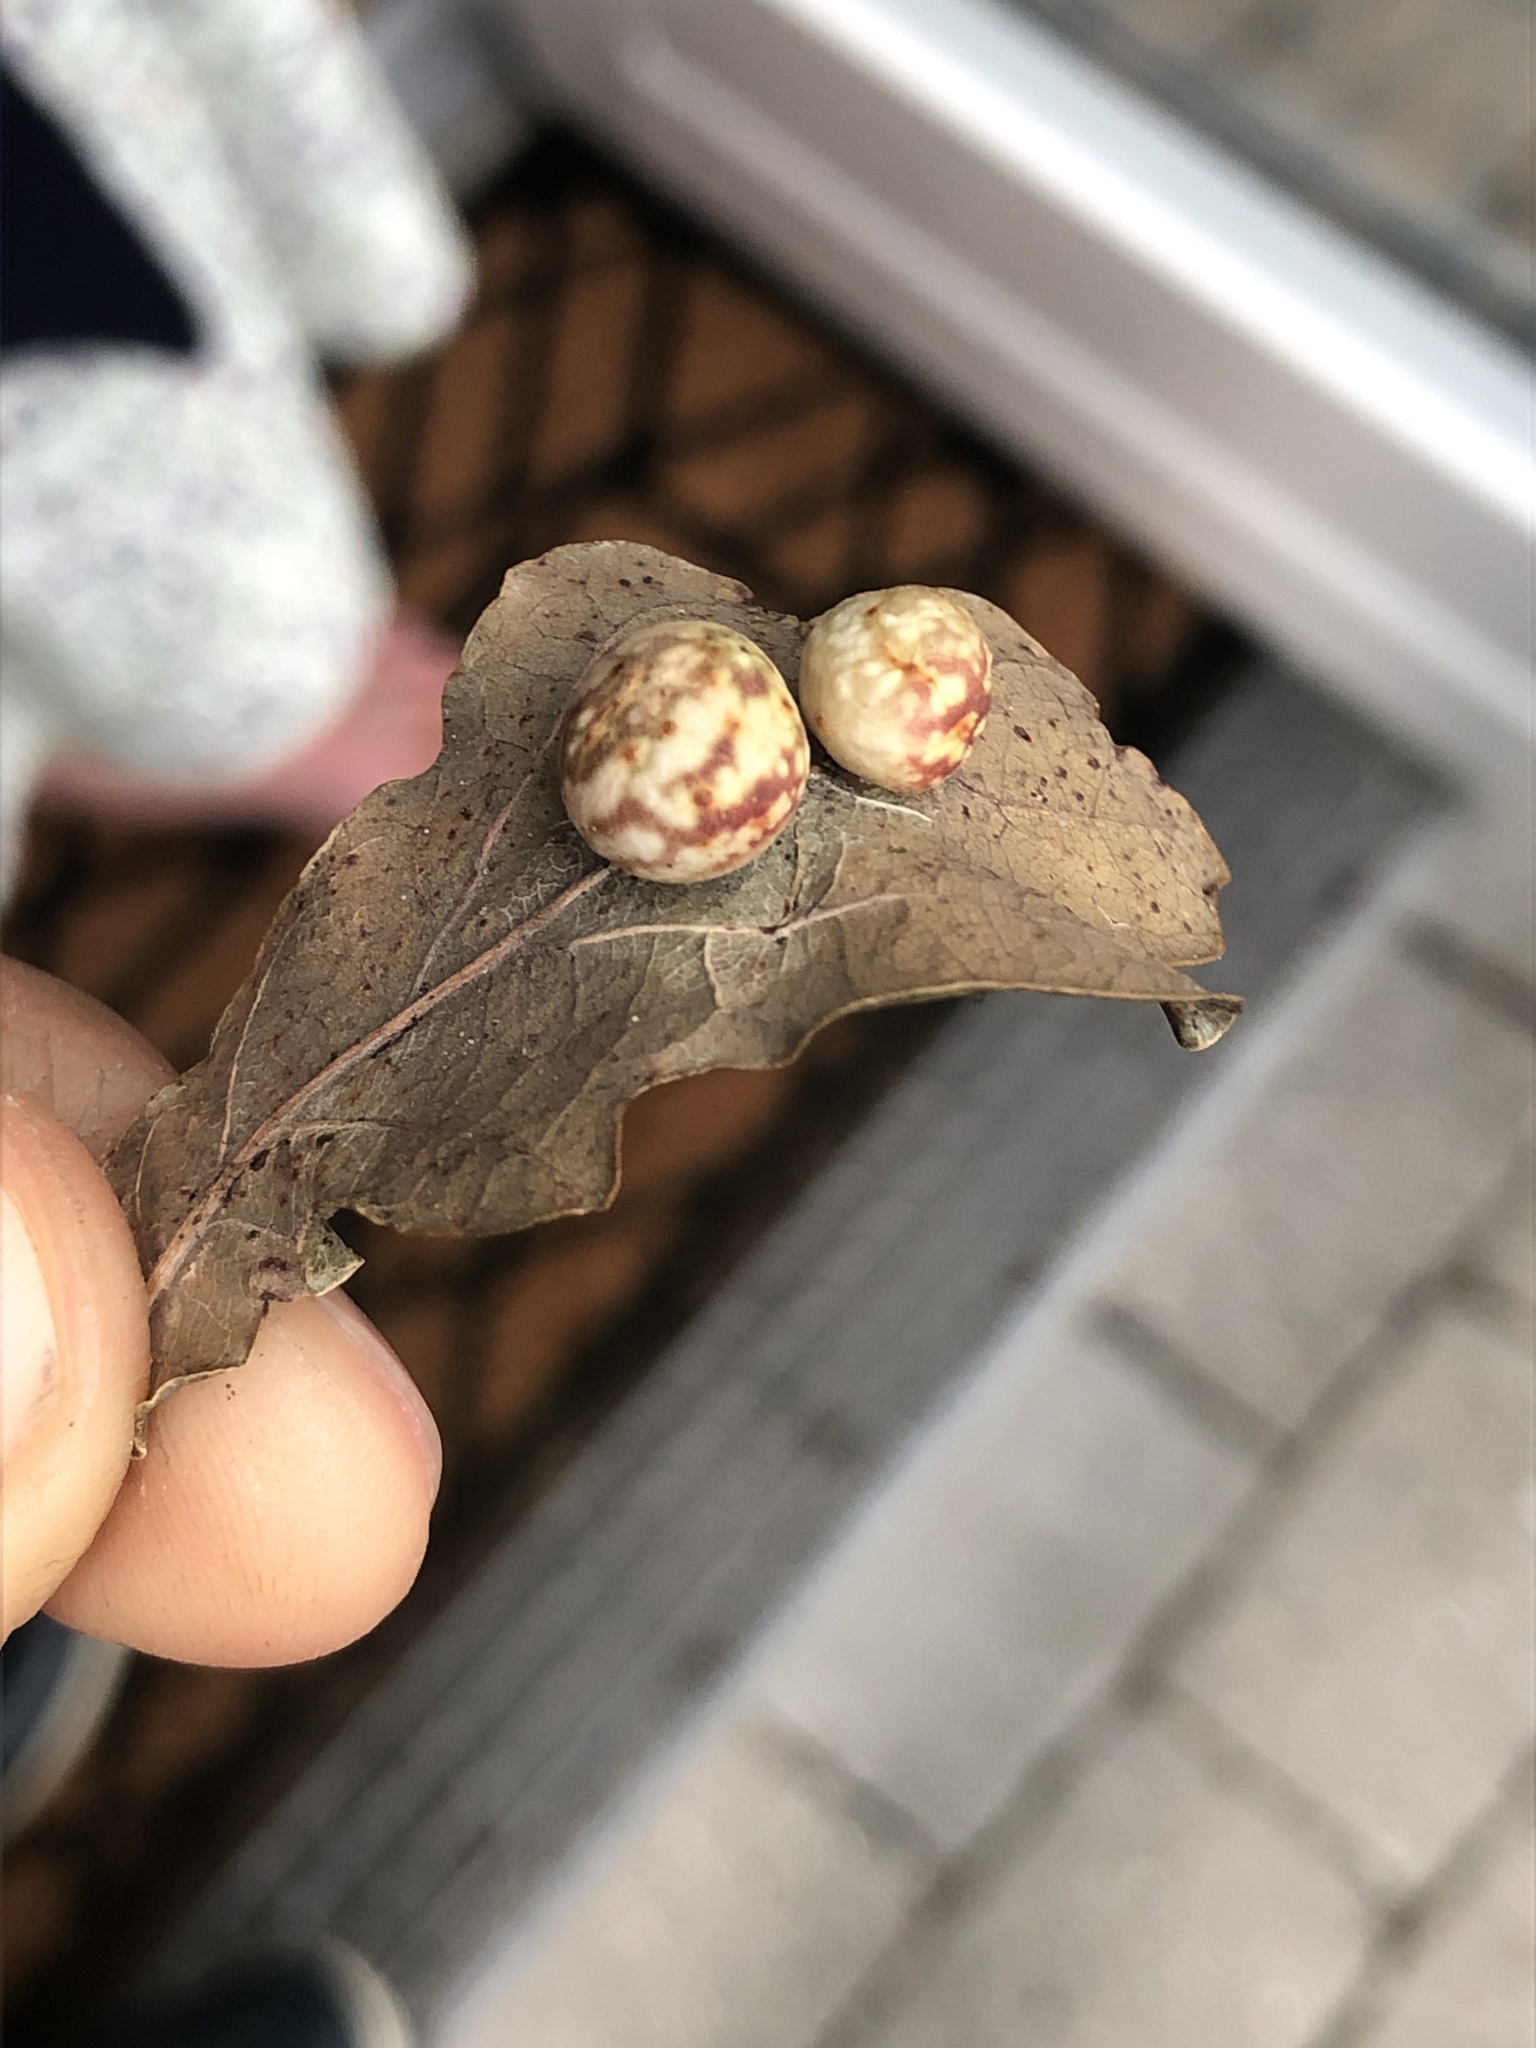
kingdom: Animalia
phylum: Arthropoda
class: Insecta
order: Hymenoptera
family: Cynipidae
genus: Cynips
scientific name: Cynips longiventris
